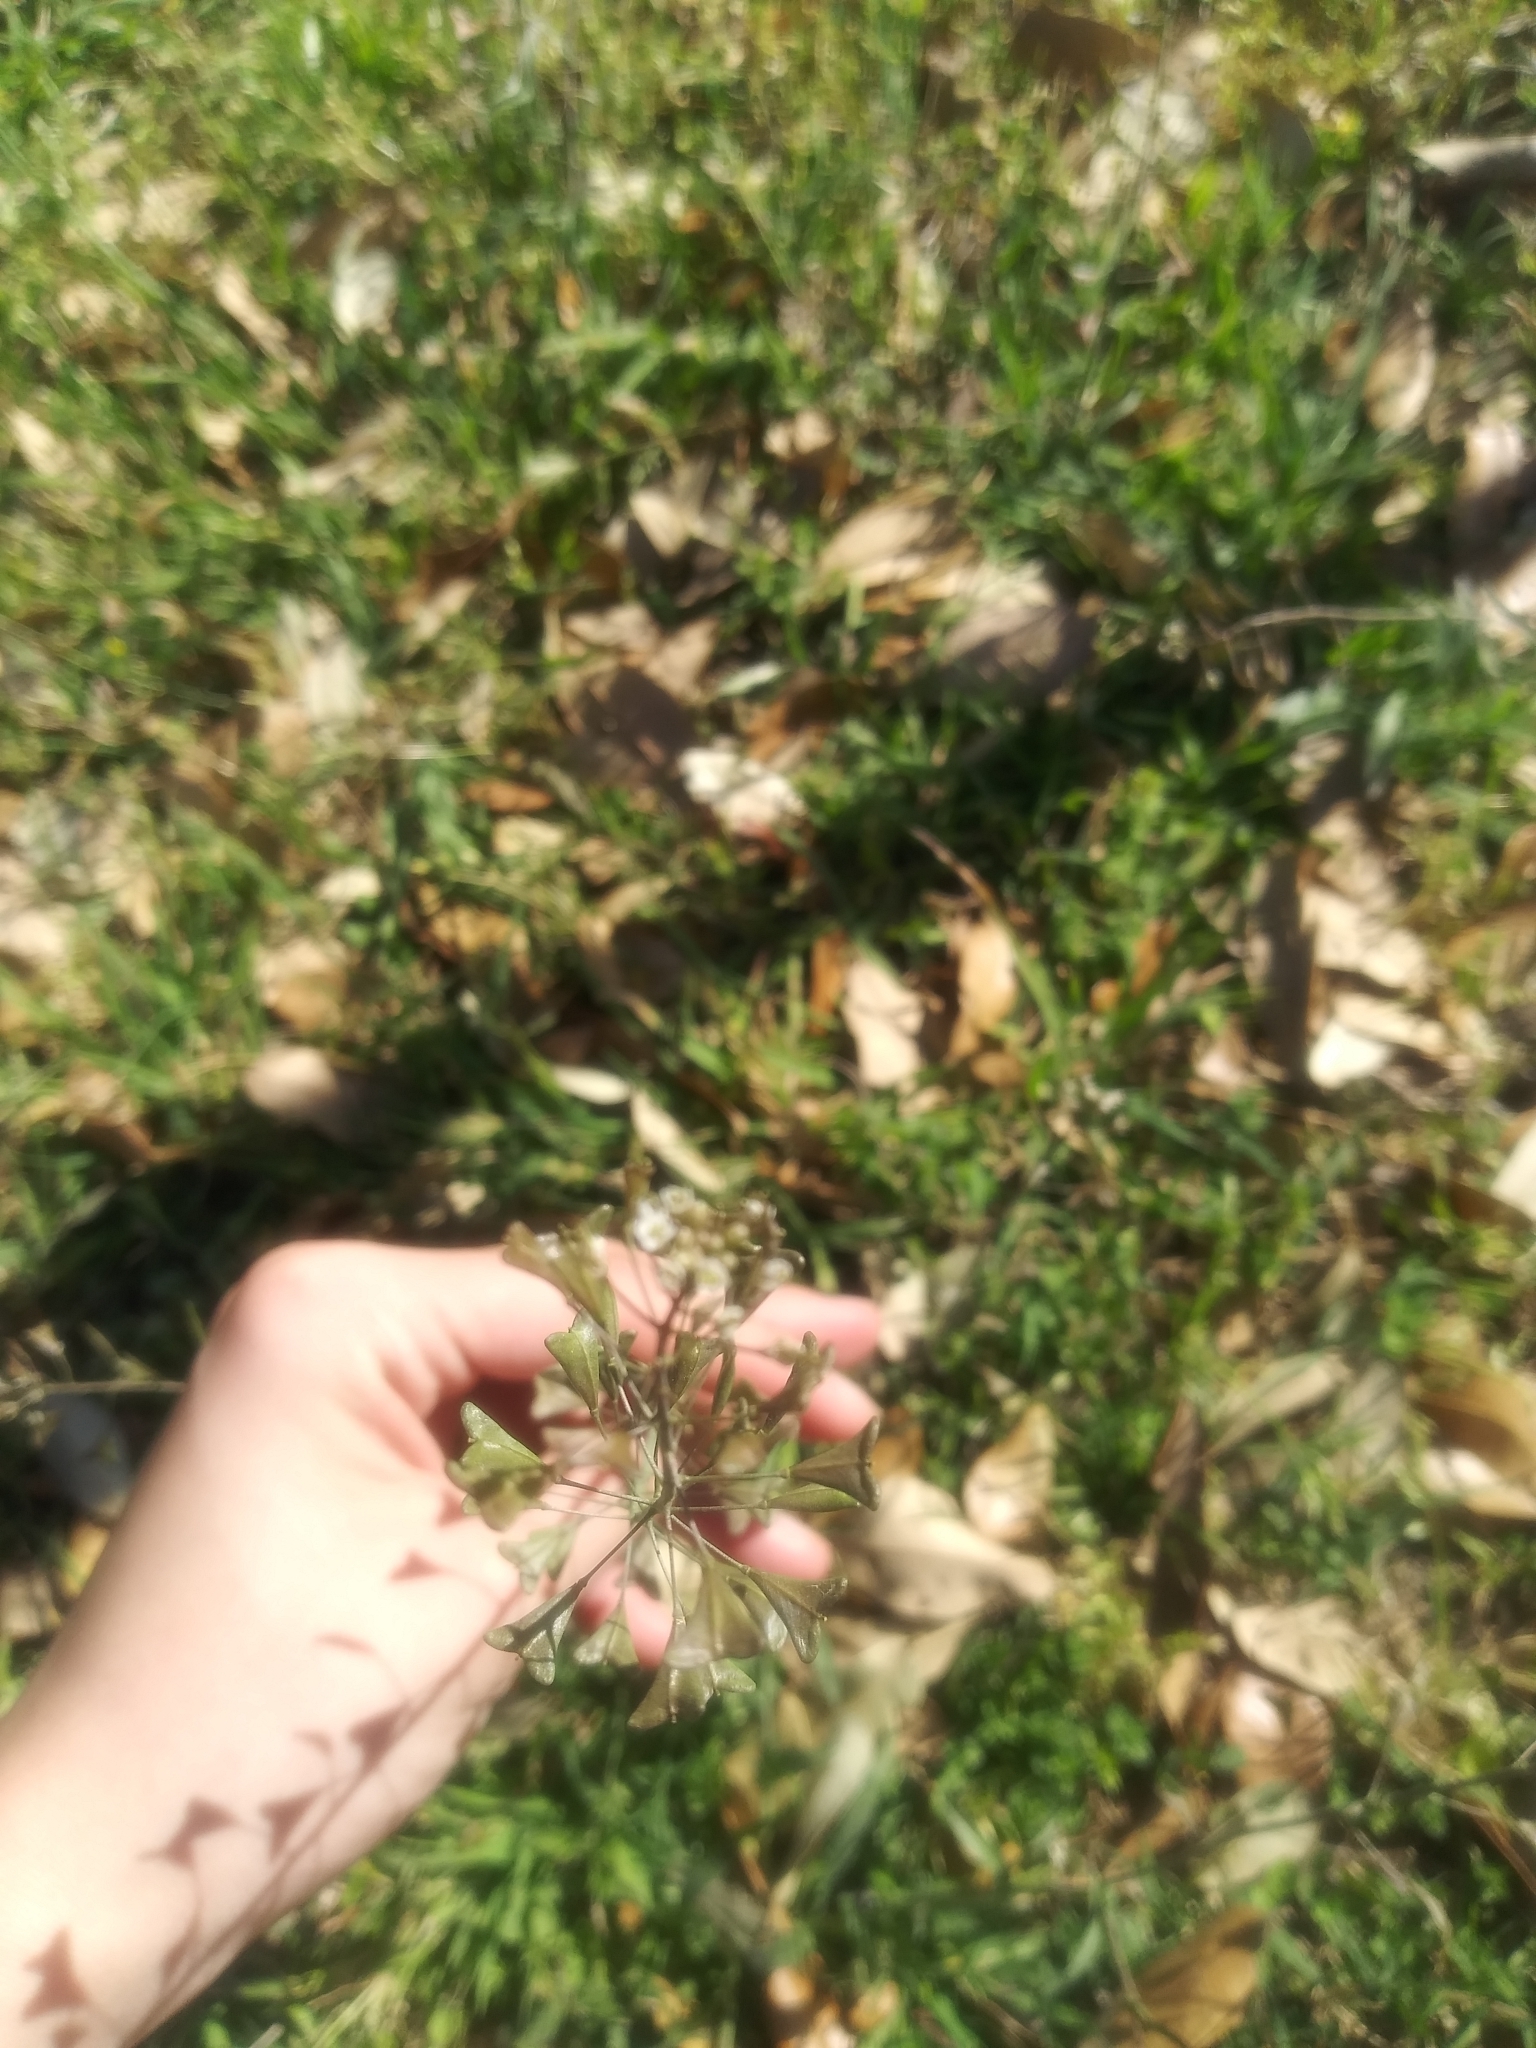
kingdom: Plantae
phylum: Tracheophyta
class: Magnoliopsida
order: Brassicales
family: Brassicaceae
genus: Capsella
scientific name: Capsella bursa-pastoris
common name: Shepherd's purse
